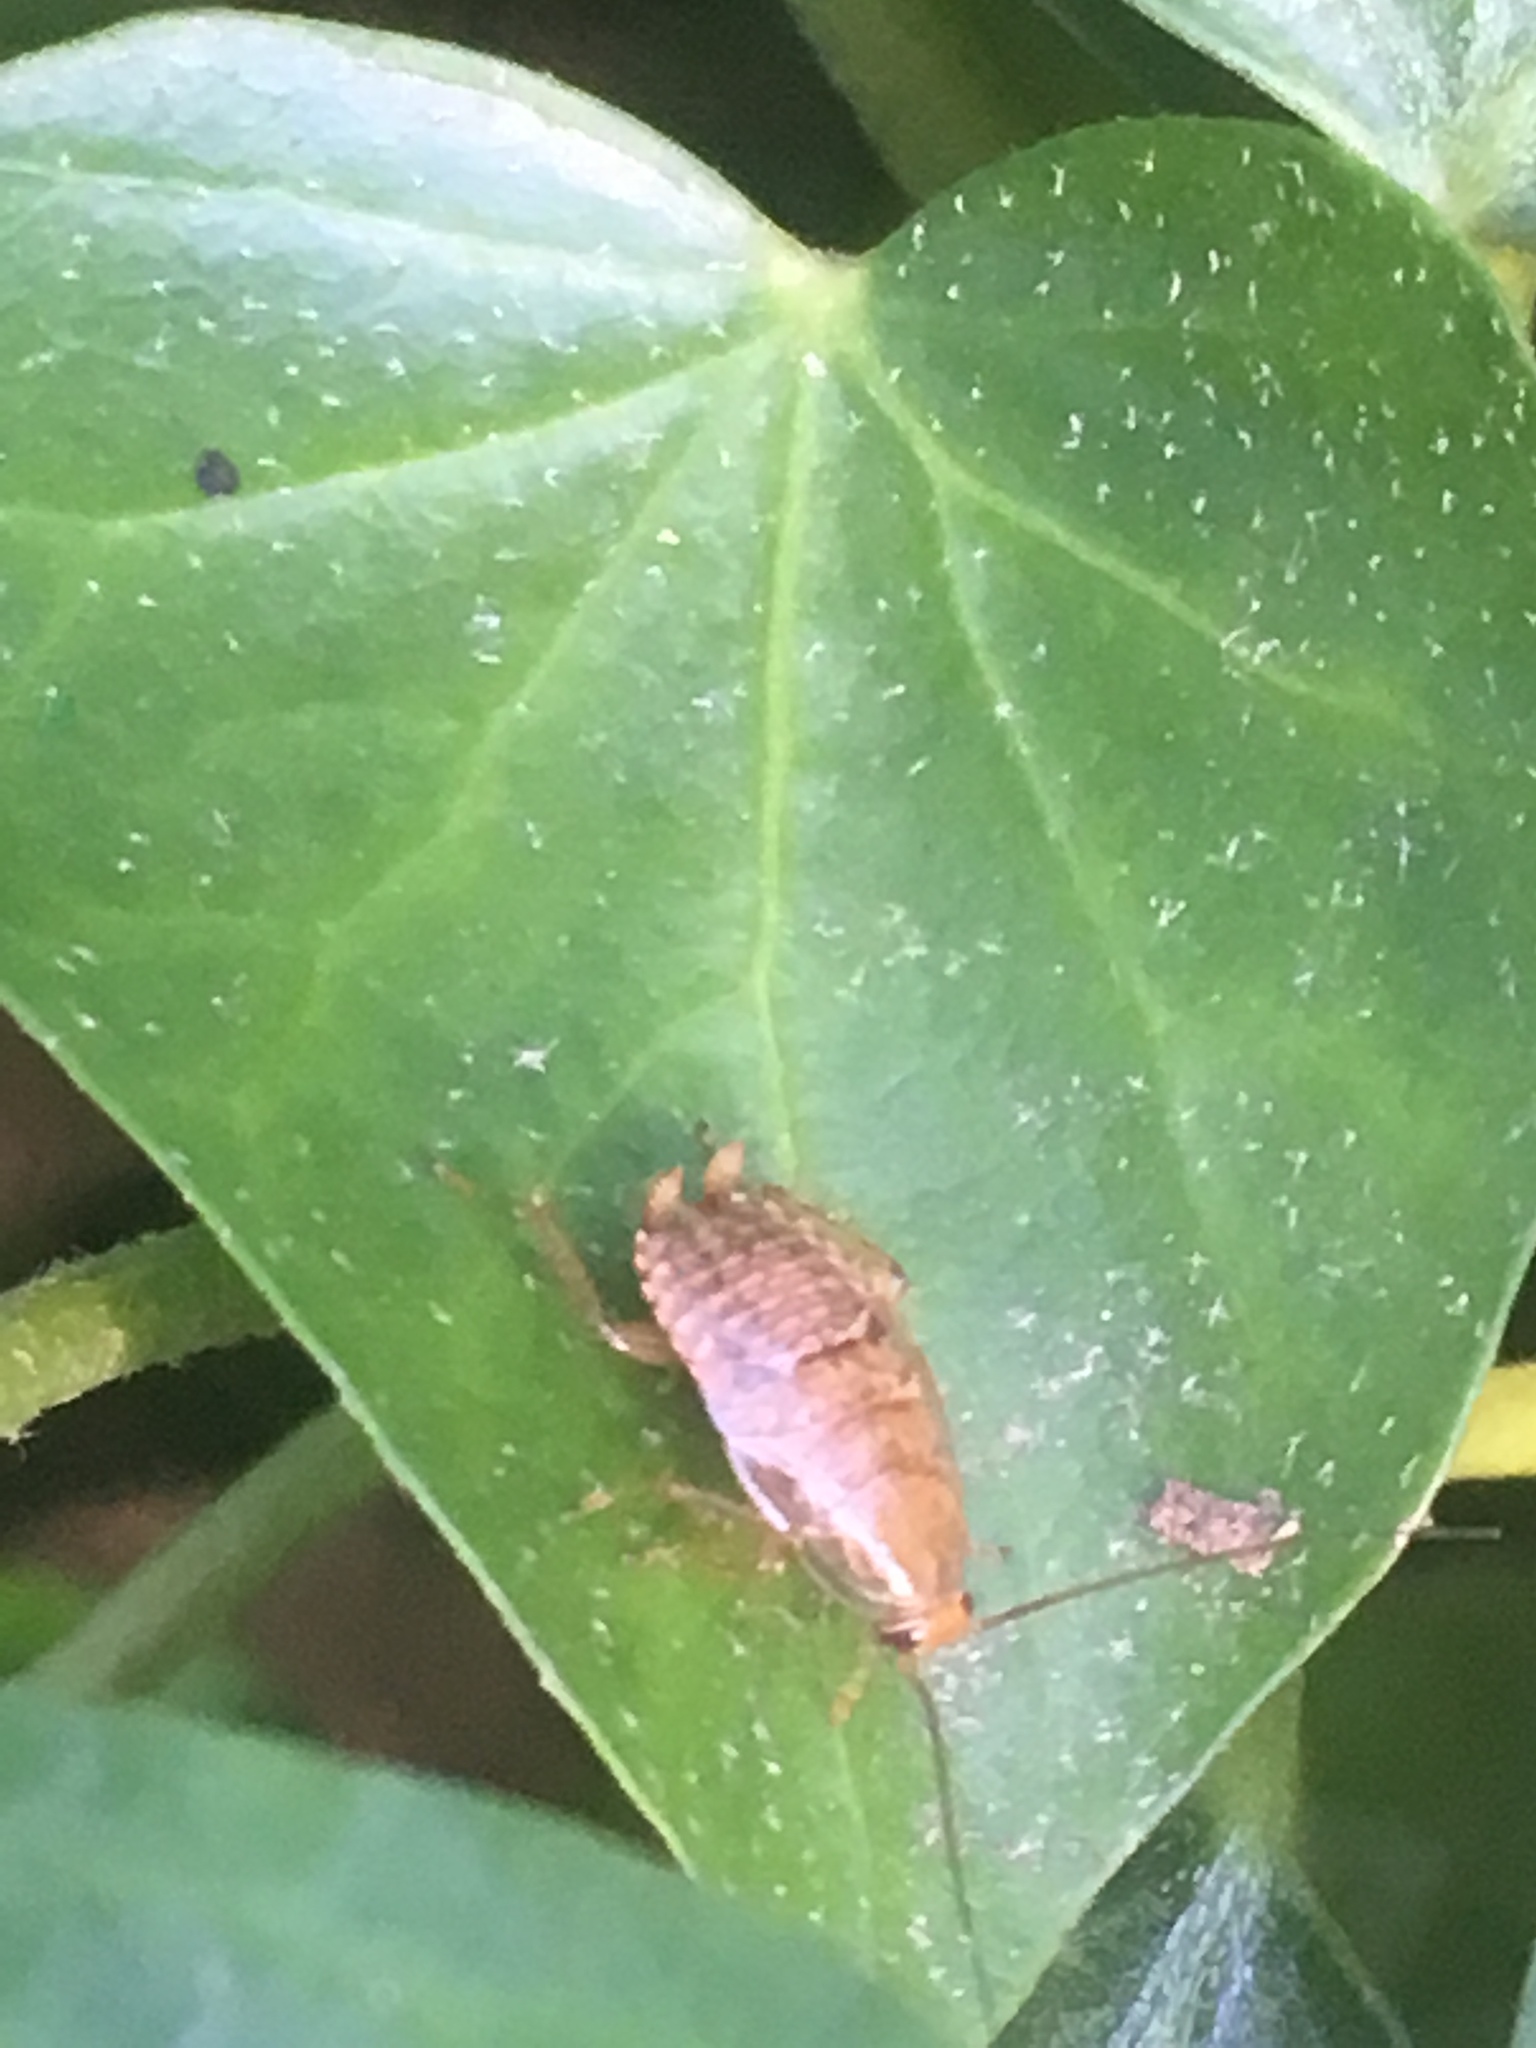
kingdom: Animalia
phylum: Arthropoda
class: Insecta
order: Blattodea
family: Ectobiidae
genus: Ectobius
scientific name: Ectobius vittiventris
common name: Garden cockroach
